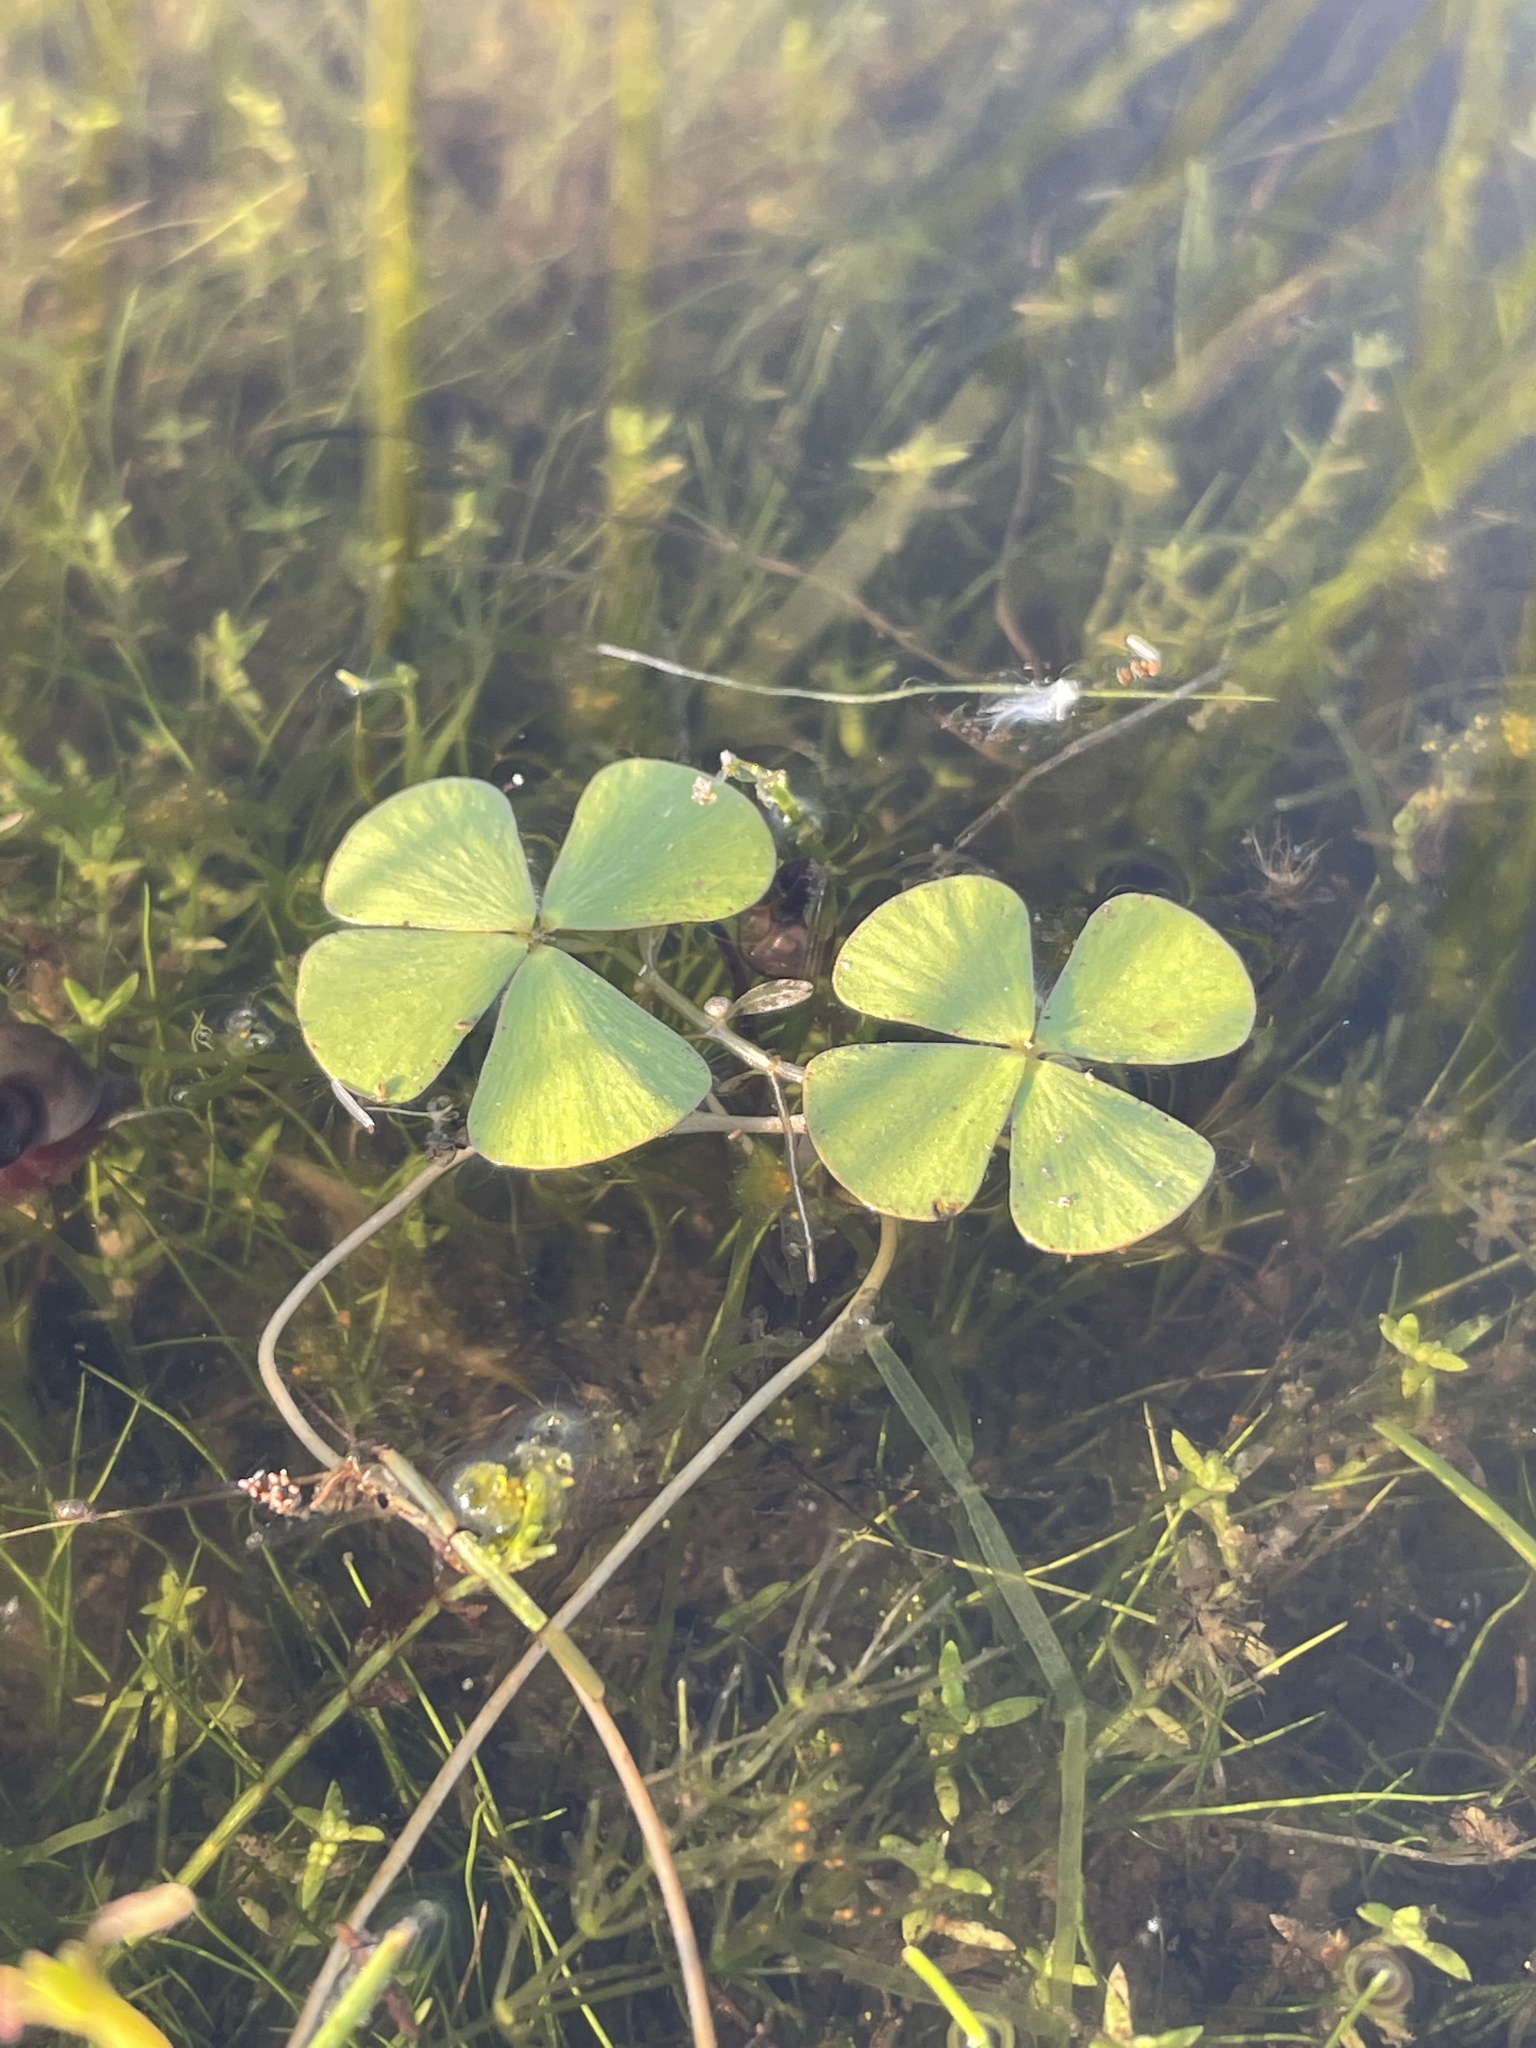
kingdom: Plantae
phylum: Tracheophyta
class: Polypodiopsida
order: Salviniales
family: Marsileaceae
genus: Marsilea
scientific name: Marsilea oligospora
